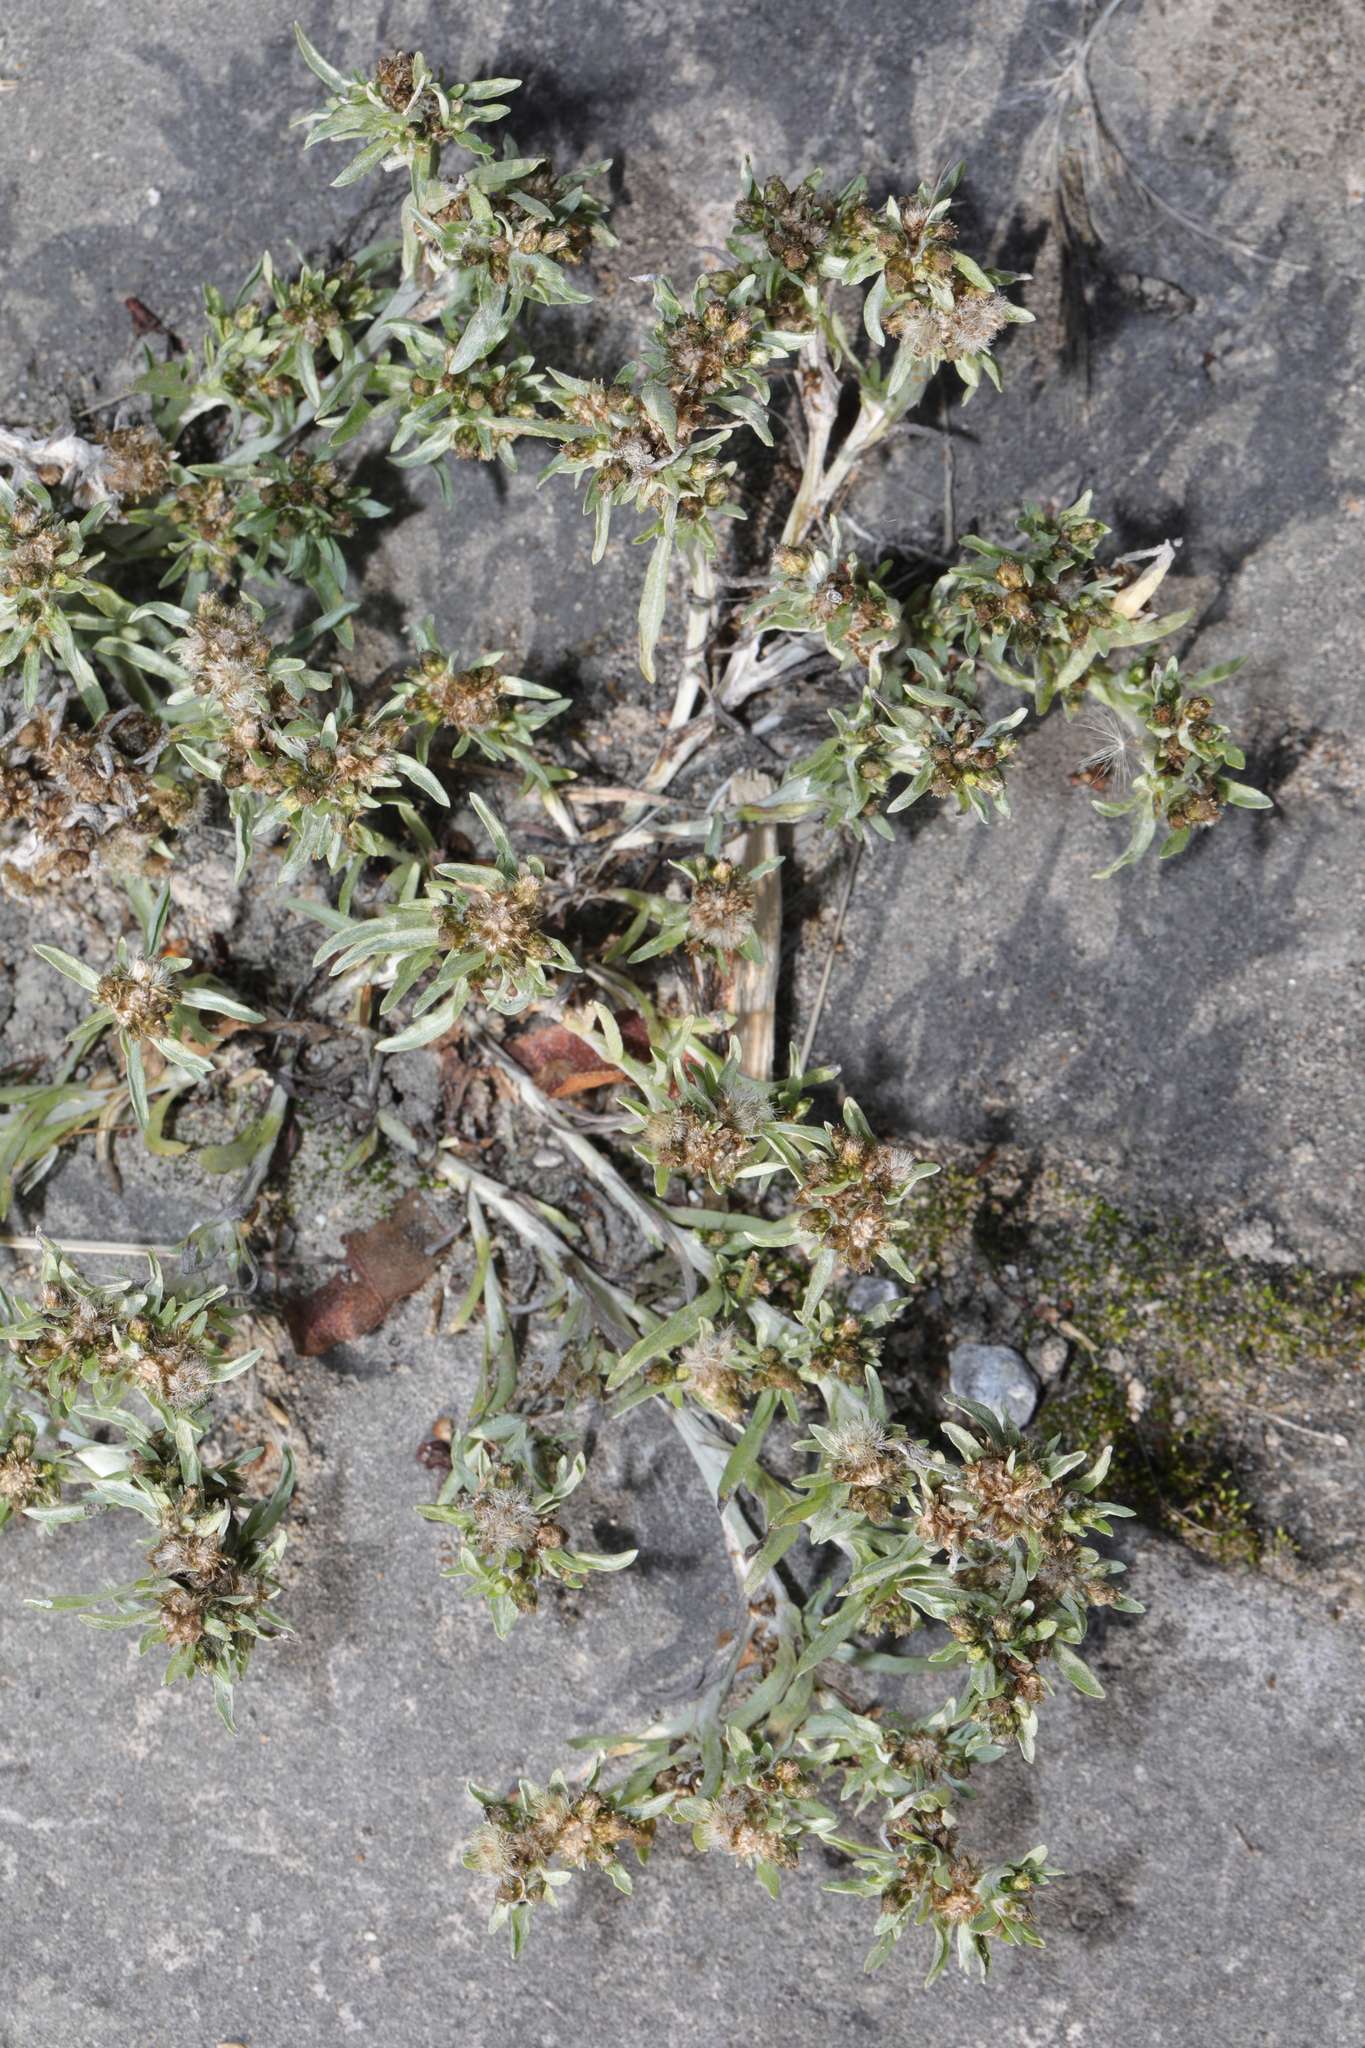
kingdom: Plantae
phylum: Tracheophyta
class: Magnoliopsida
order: Asterales
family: Asteraceae
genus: Gnaphalium
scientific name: Gnaphalium uliginosum
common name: Marsh cudweed
